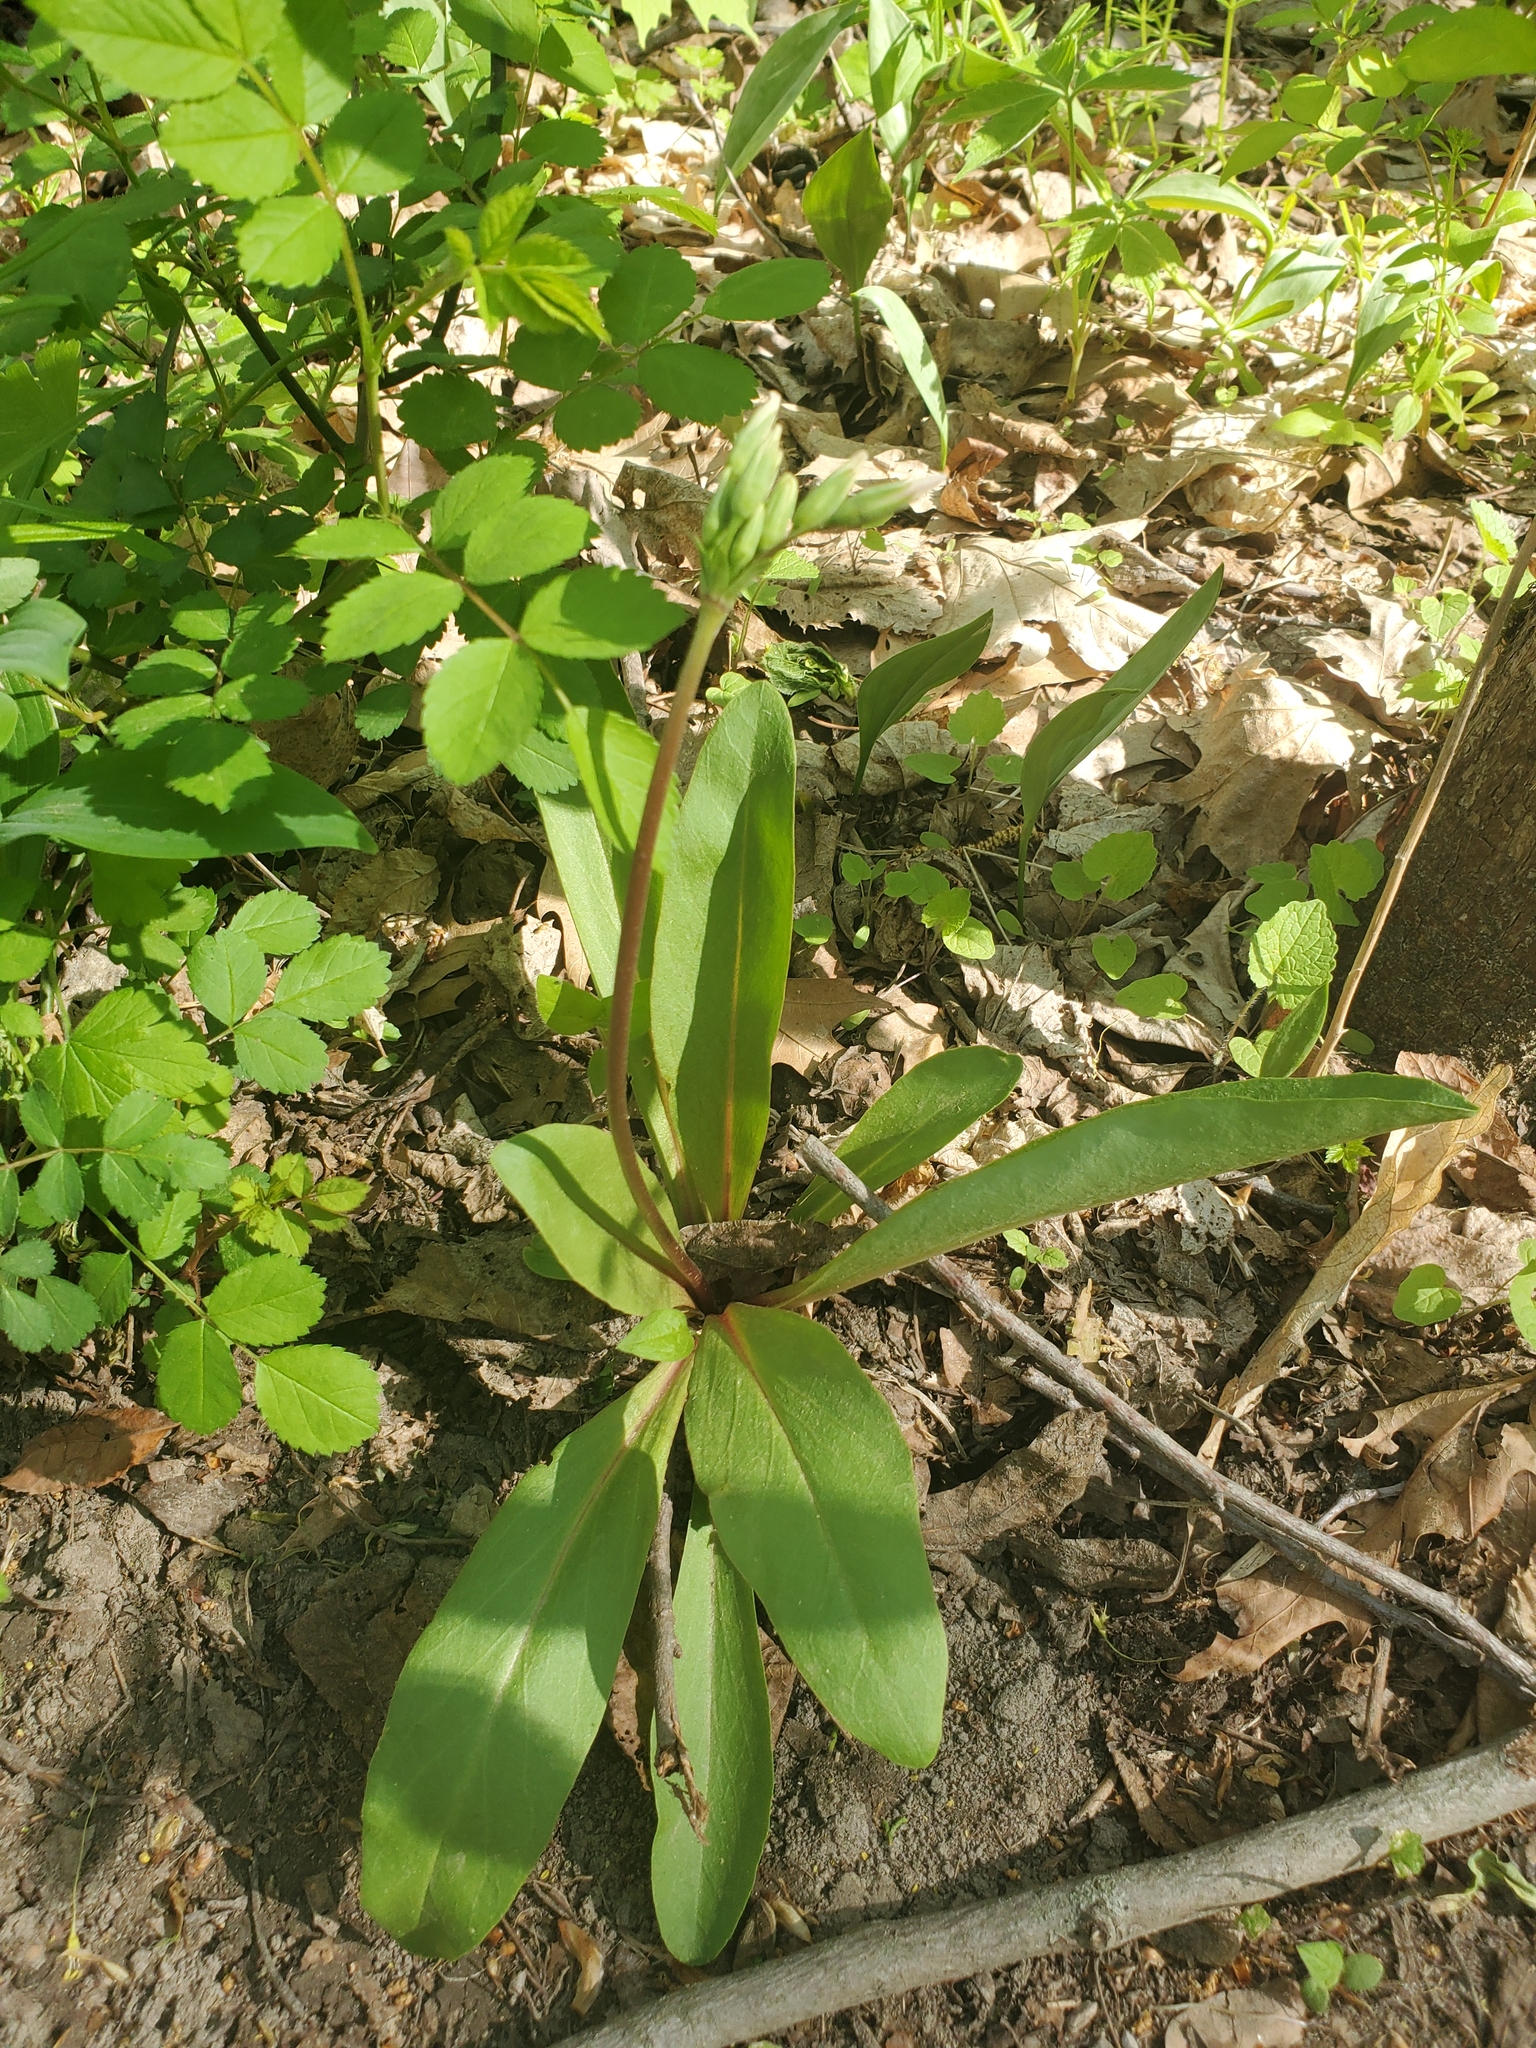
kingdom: Plantae
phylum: Tracheophyta
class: Magnoliopsida
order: Ericales
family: Primulaceae
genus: Dodecatheon
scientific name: Dodecatheon meadia
